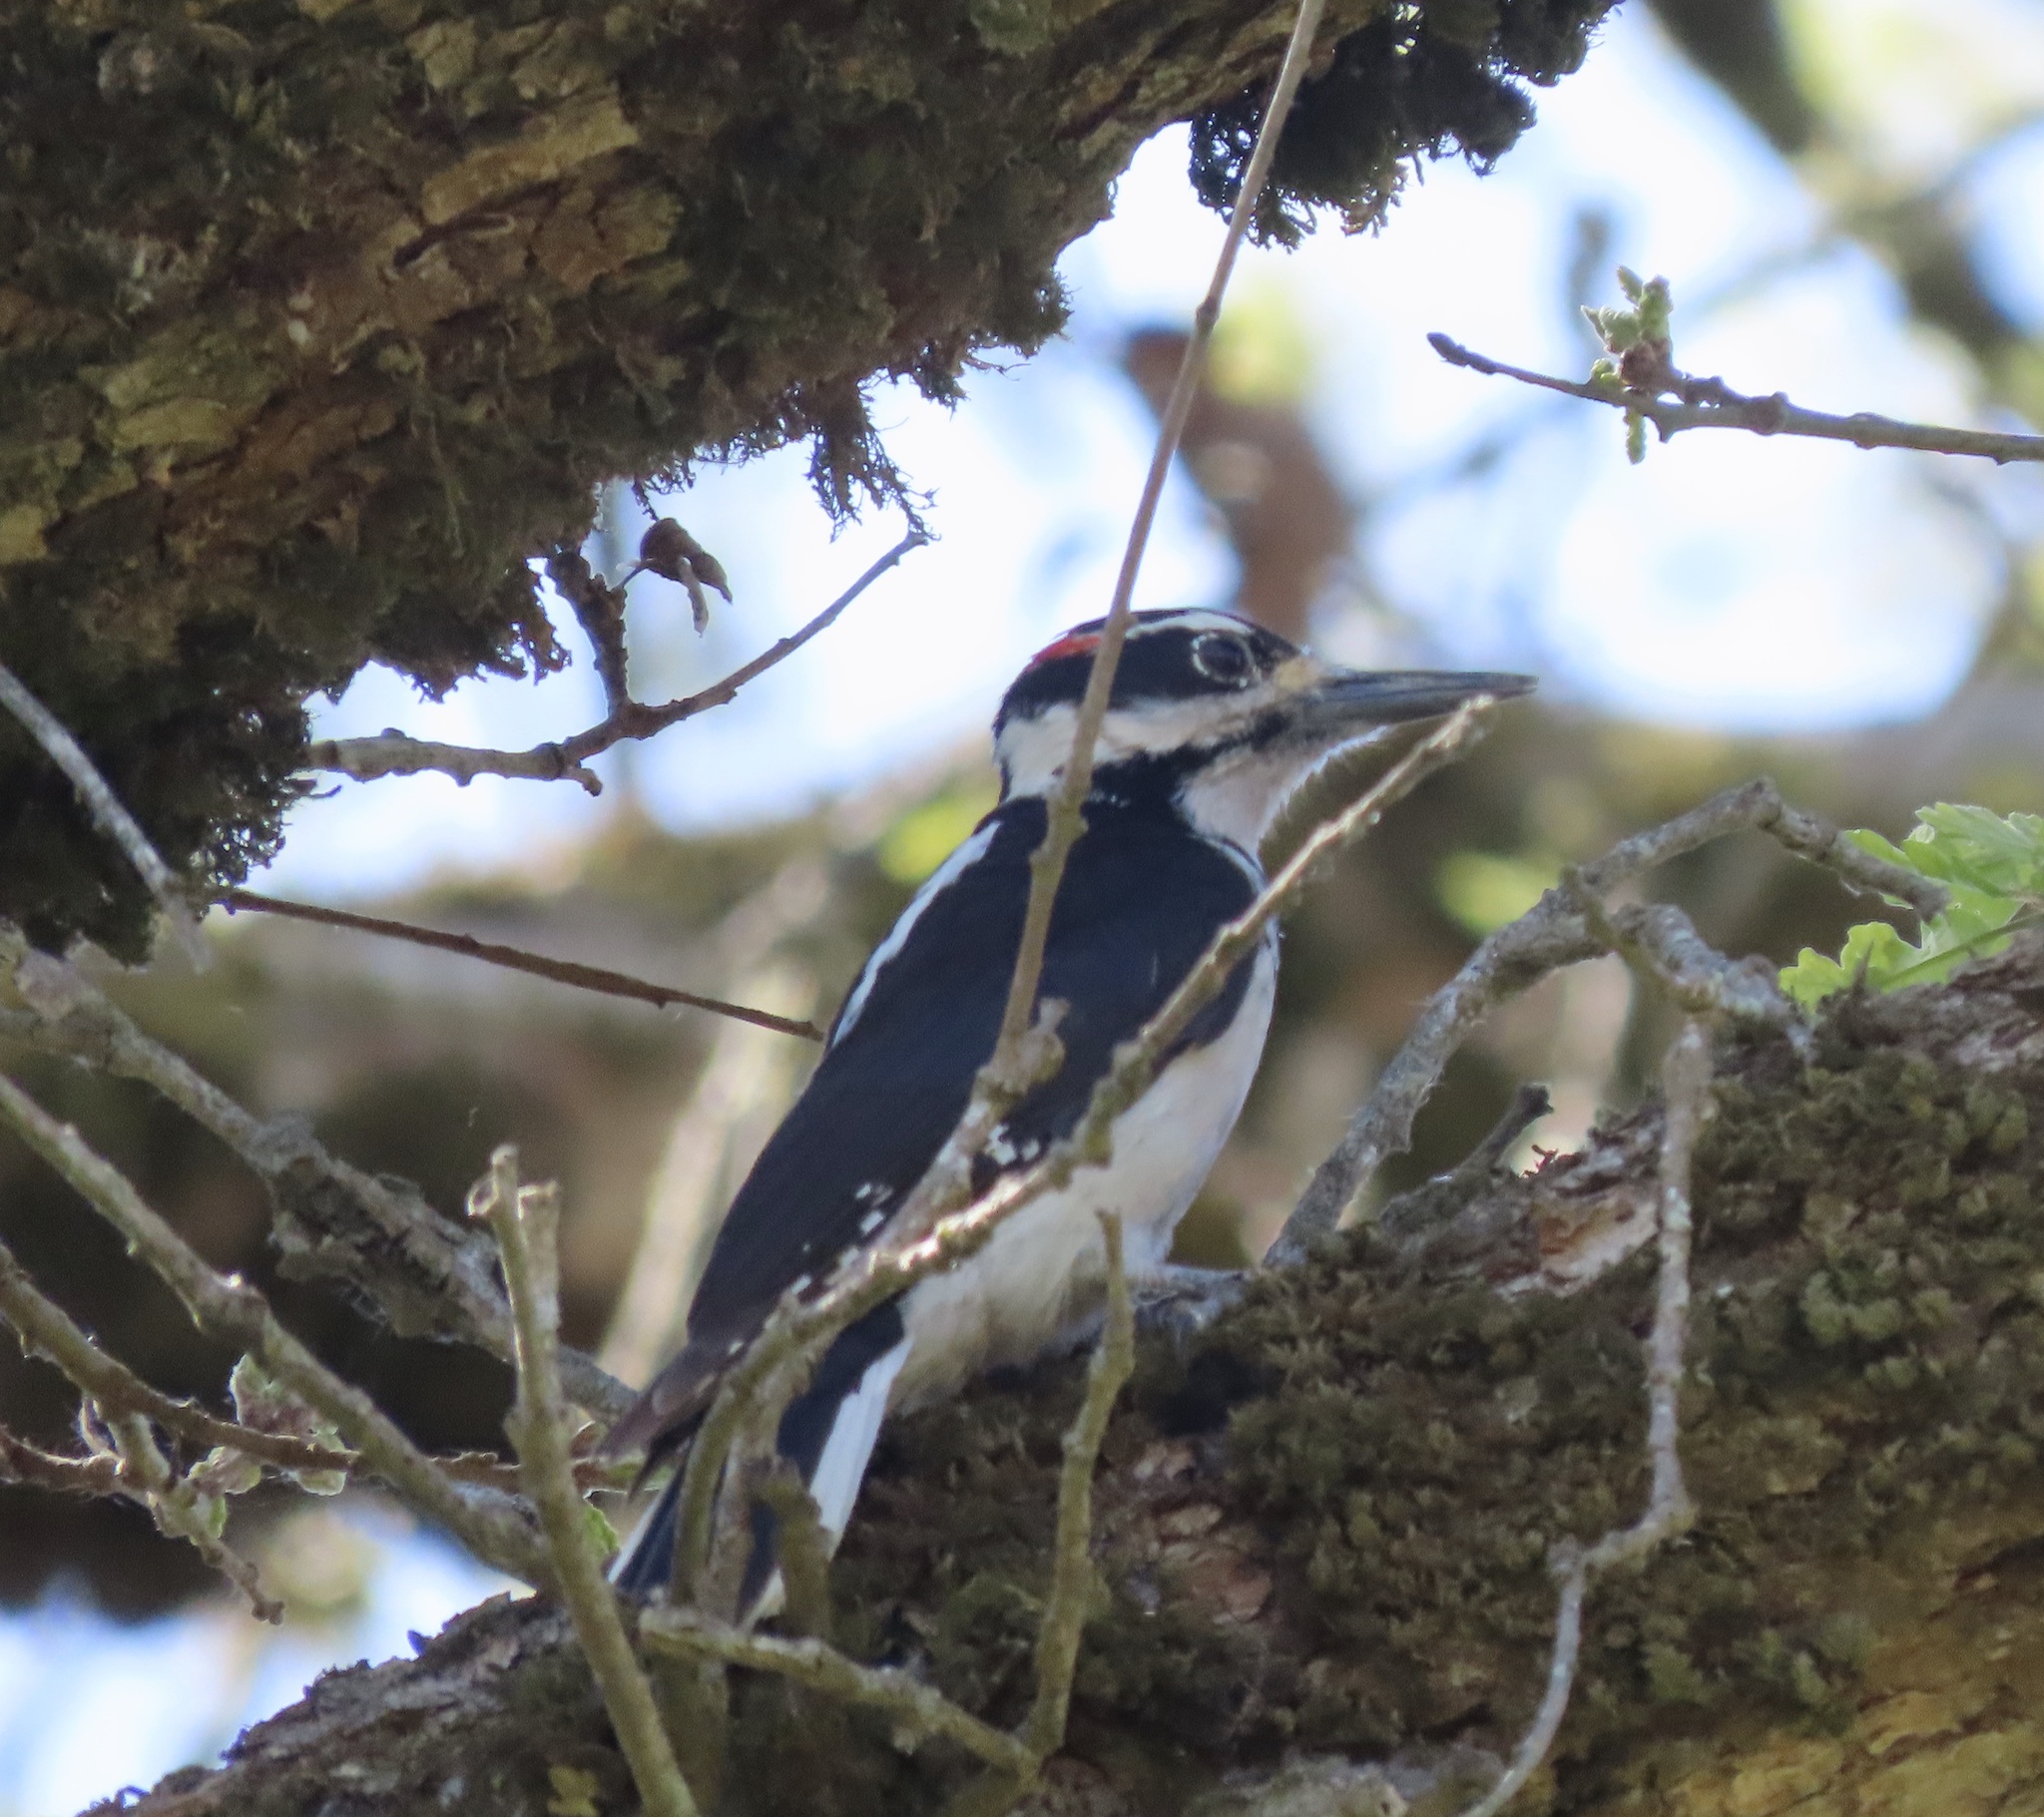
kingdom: Animalia
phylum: Chordata
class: Aves
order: Piciformes
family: Picidae
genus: Leuconotopicus
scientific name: Leuconotopicus villosus
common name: Hairy woodpecker
